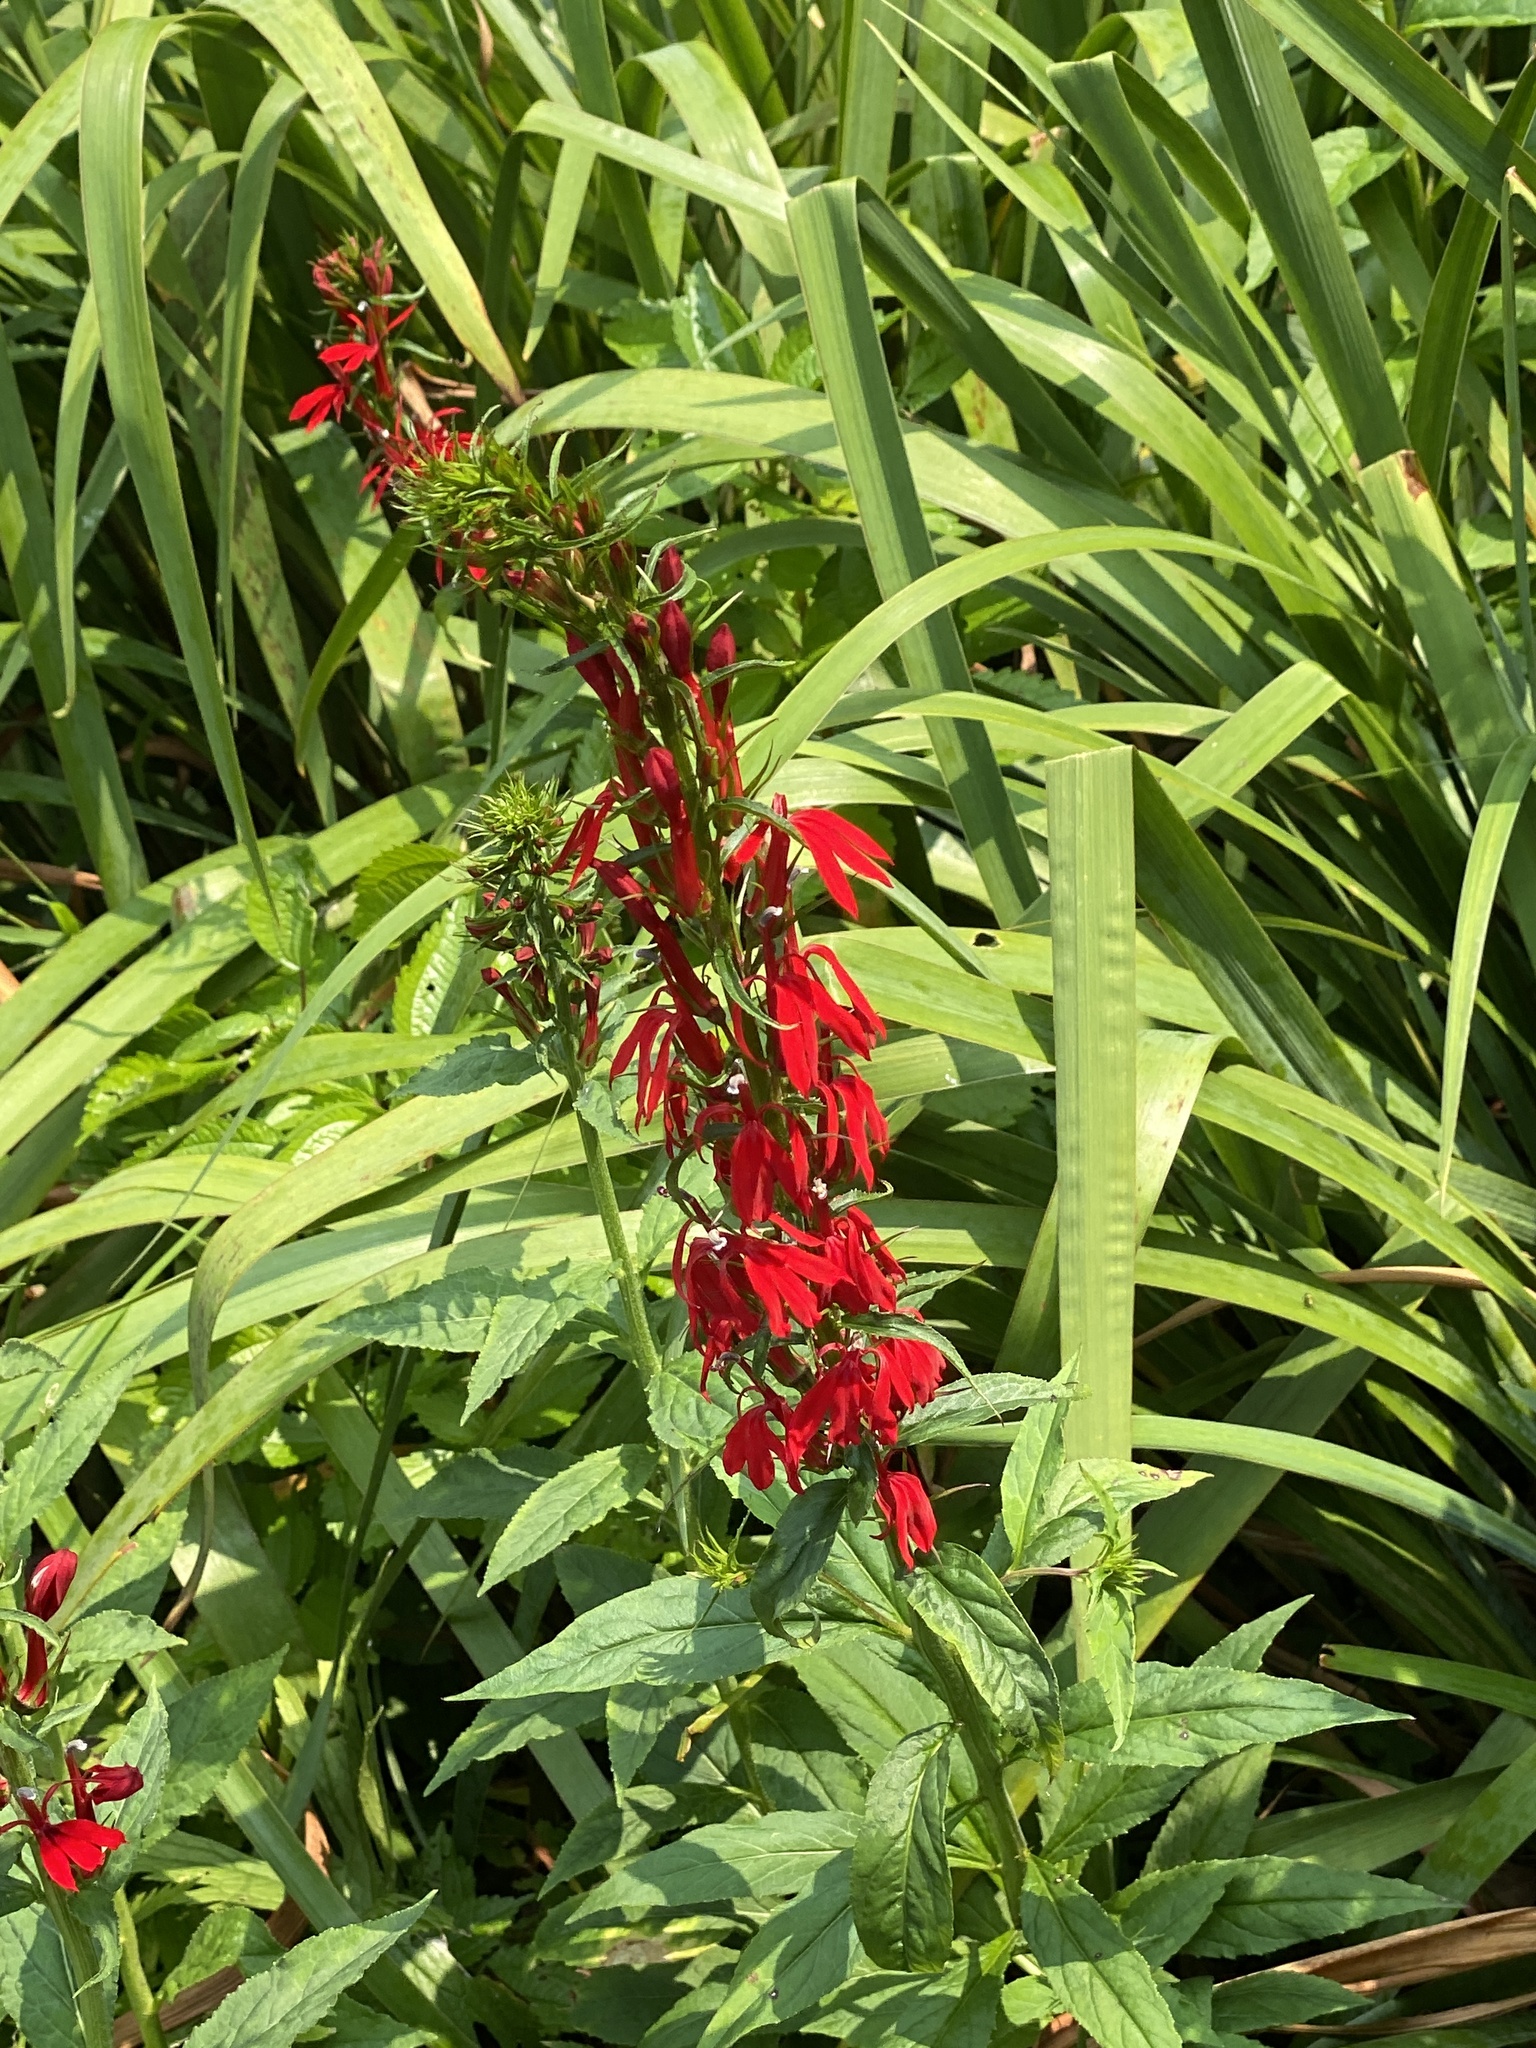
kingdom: Plantae
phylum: Tracheophyta
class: Magnoliopsida
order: Asterales
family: Campanulaceae
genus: Lobelia
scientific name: Lobelia cardinalis
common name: Cardinal flower
